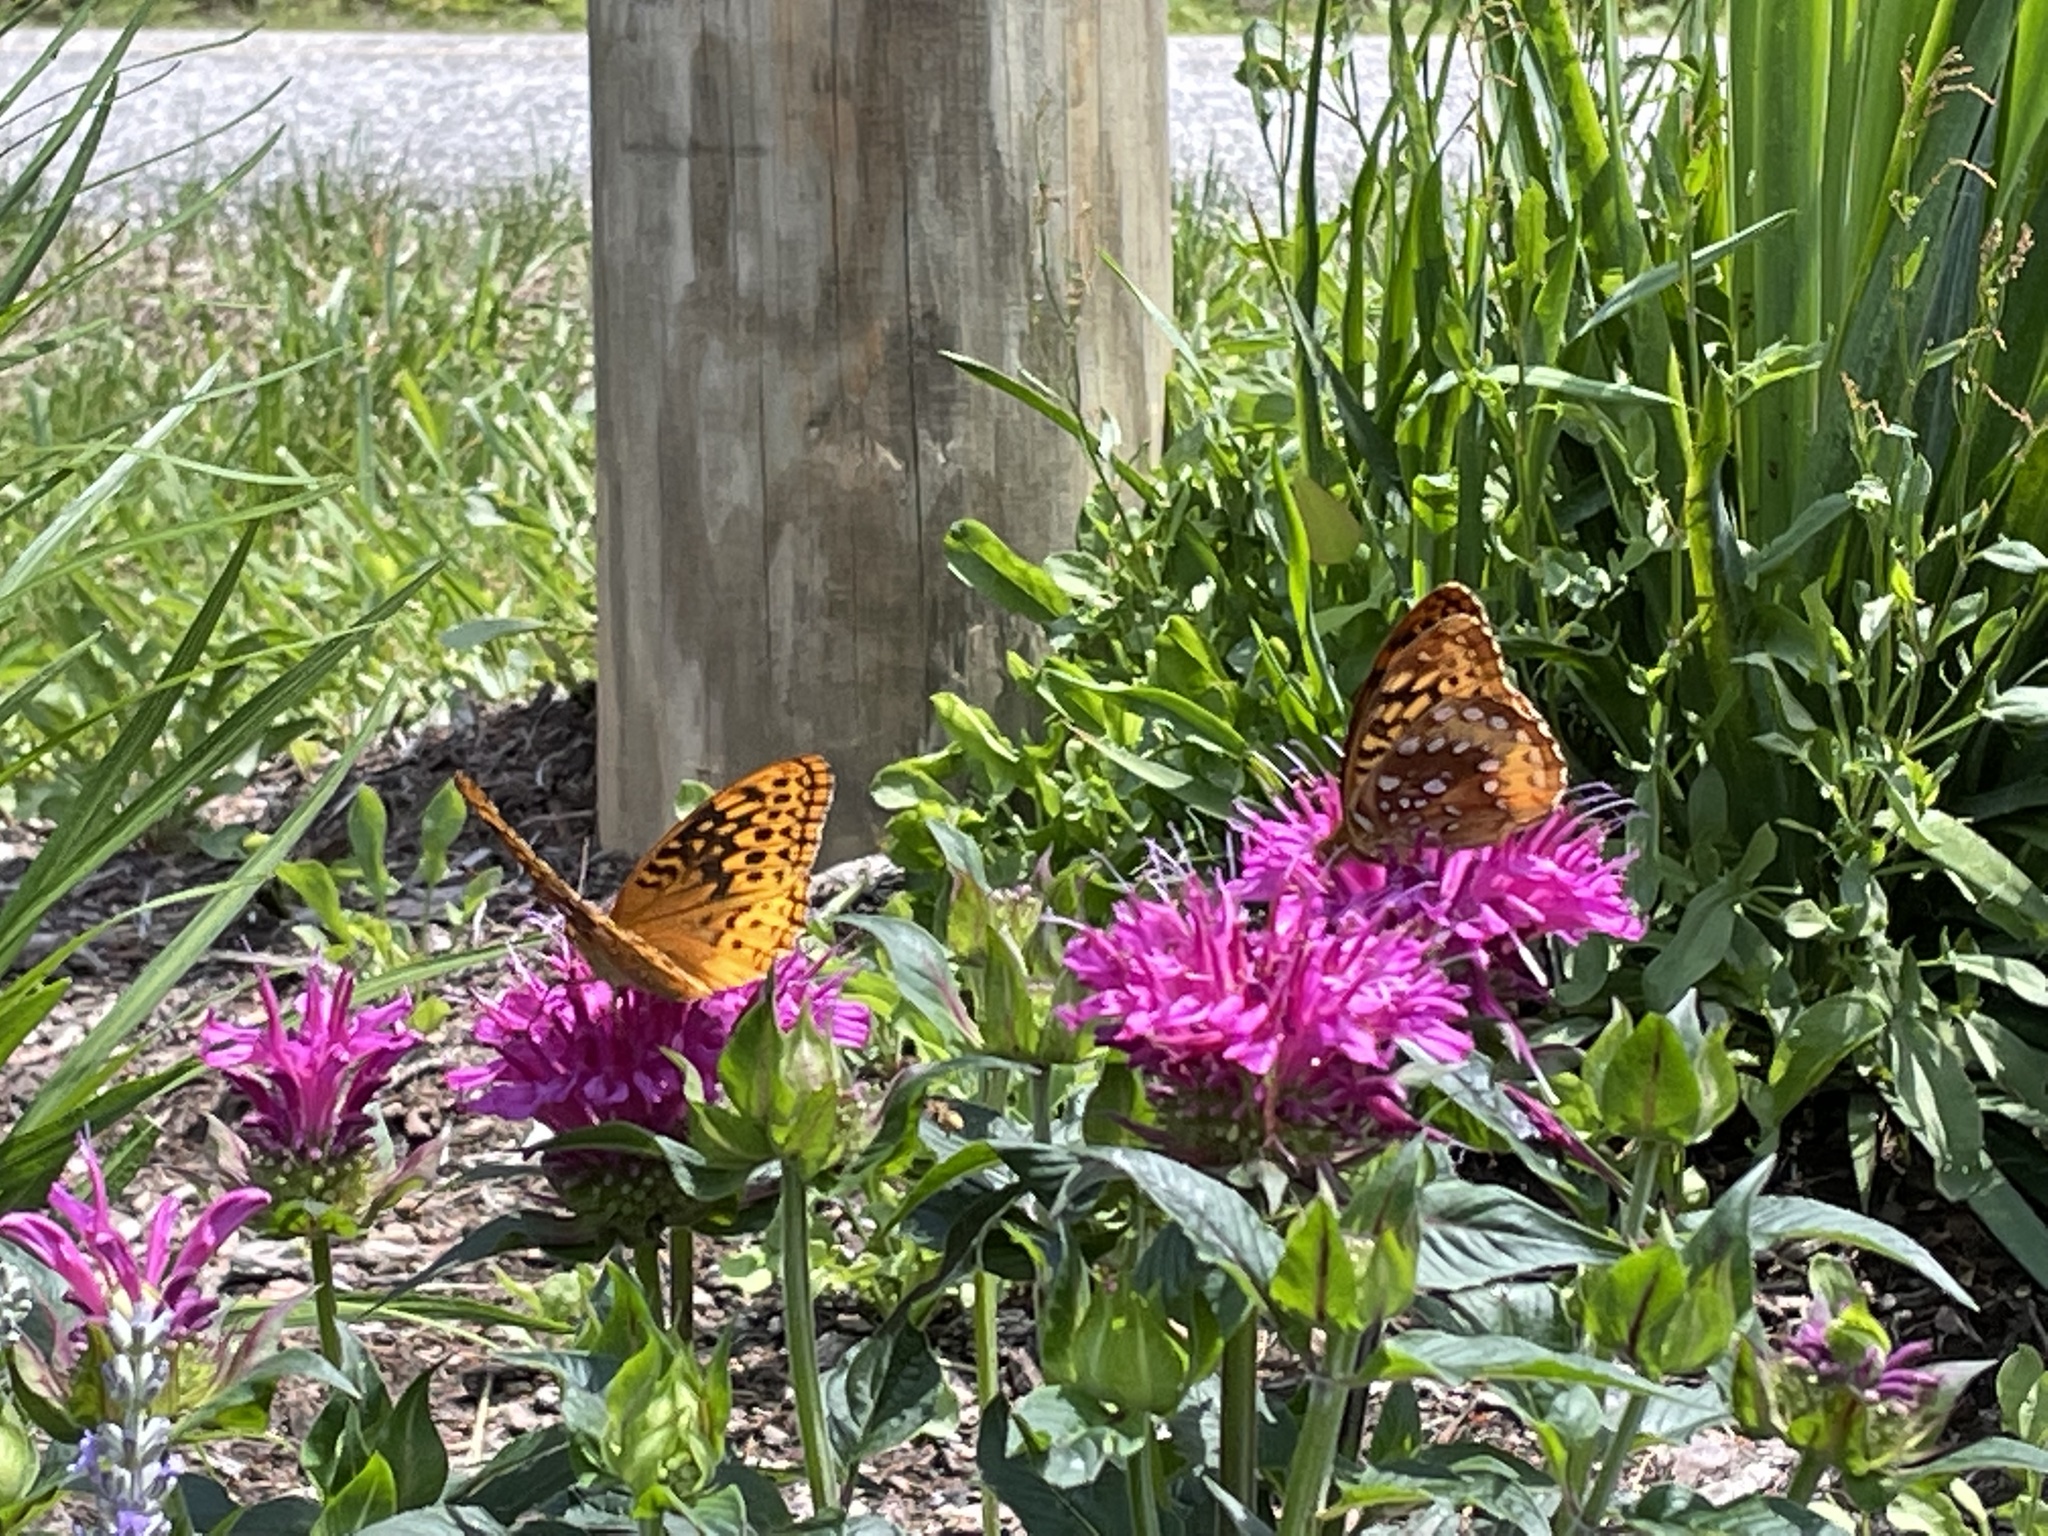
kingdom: Animalia
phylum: Arthropoda
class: Insecta
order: Lepidoptera
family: Nymphalidae
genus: Speyeria
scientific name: Speyeria cybele
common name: Great spangled fritillary
